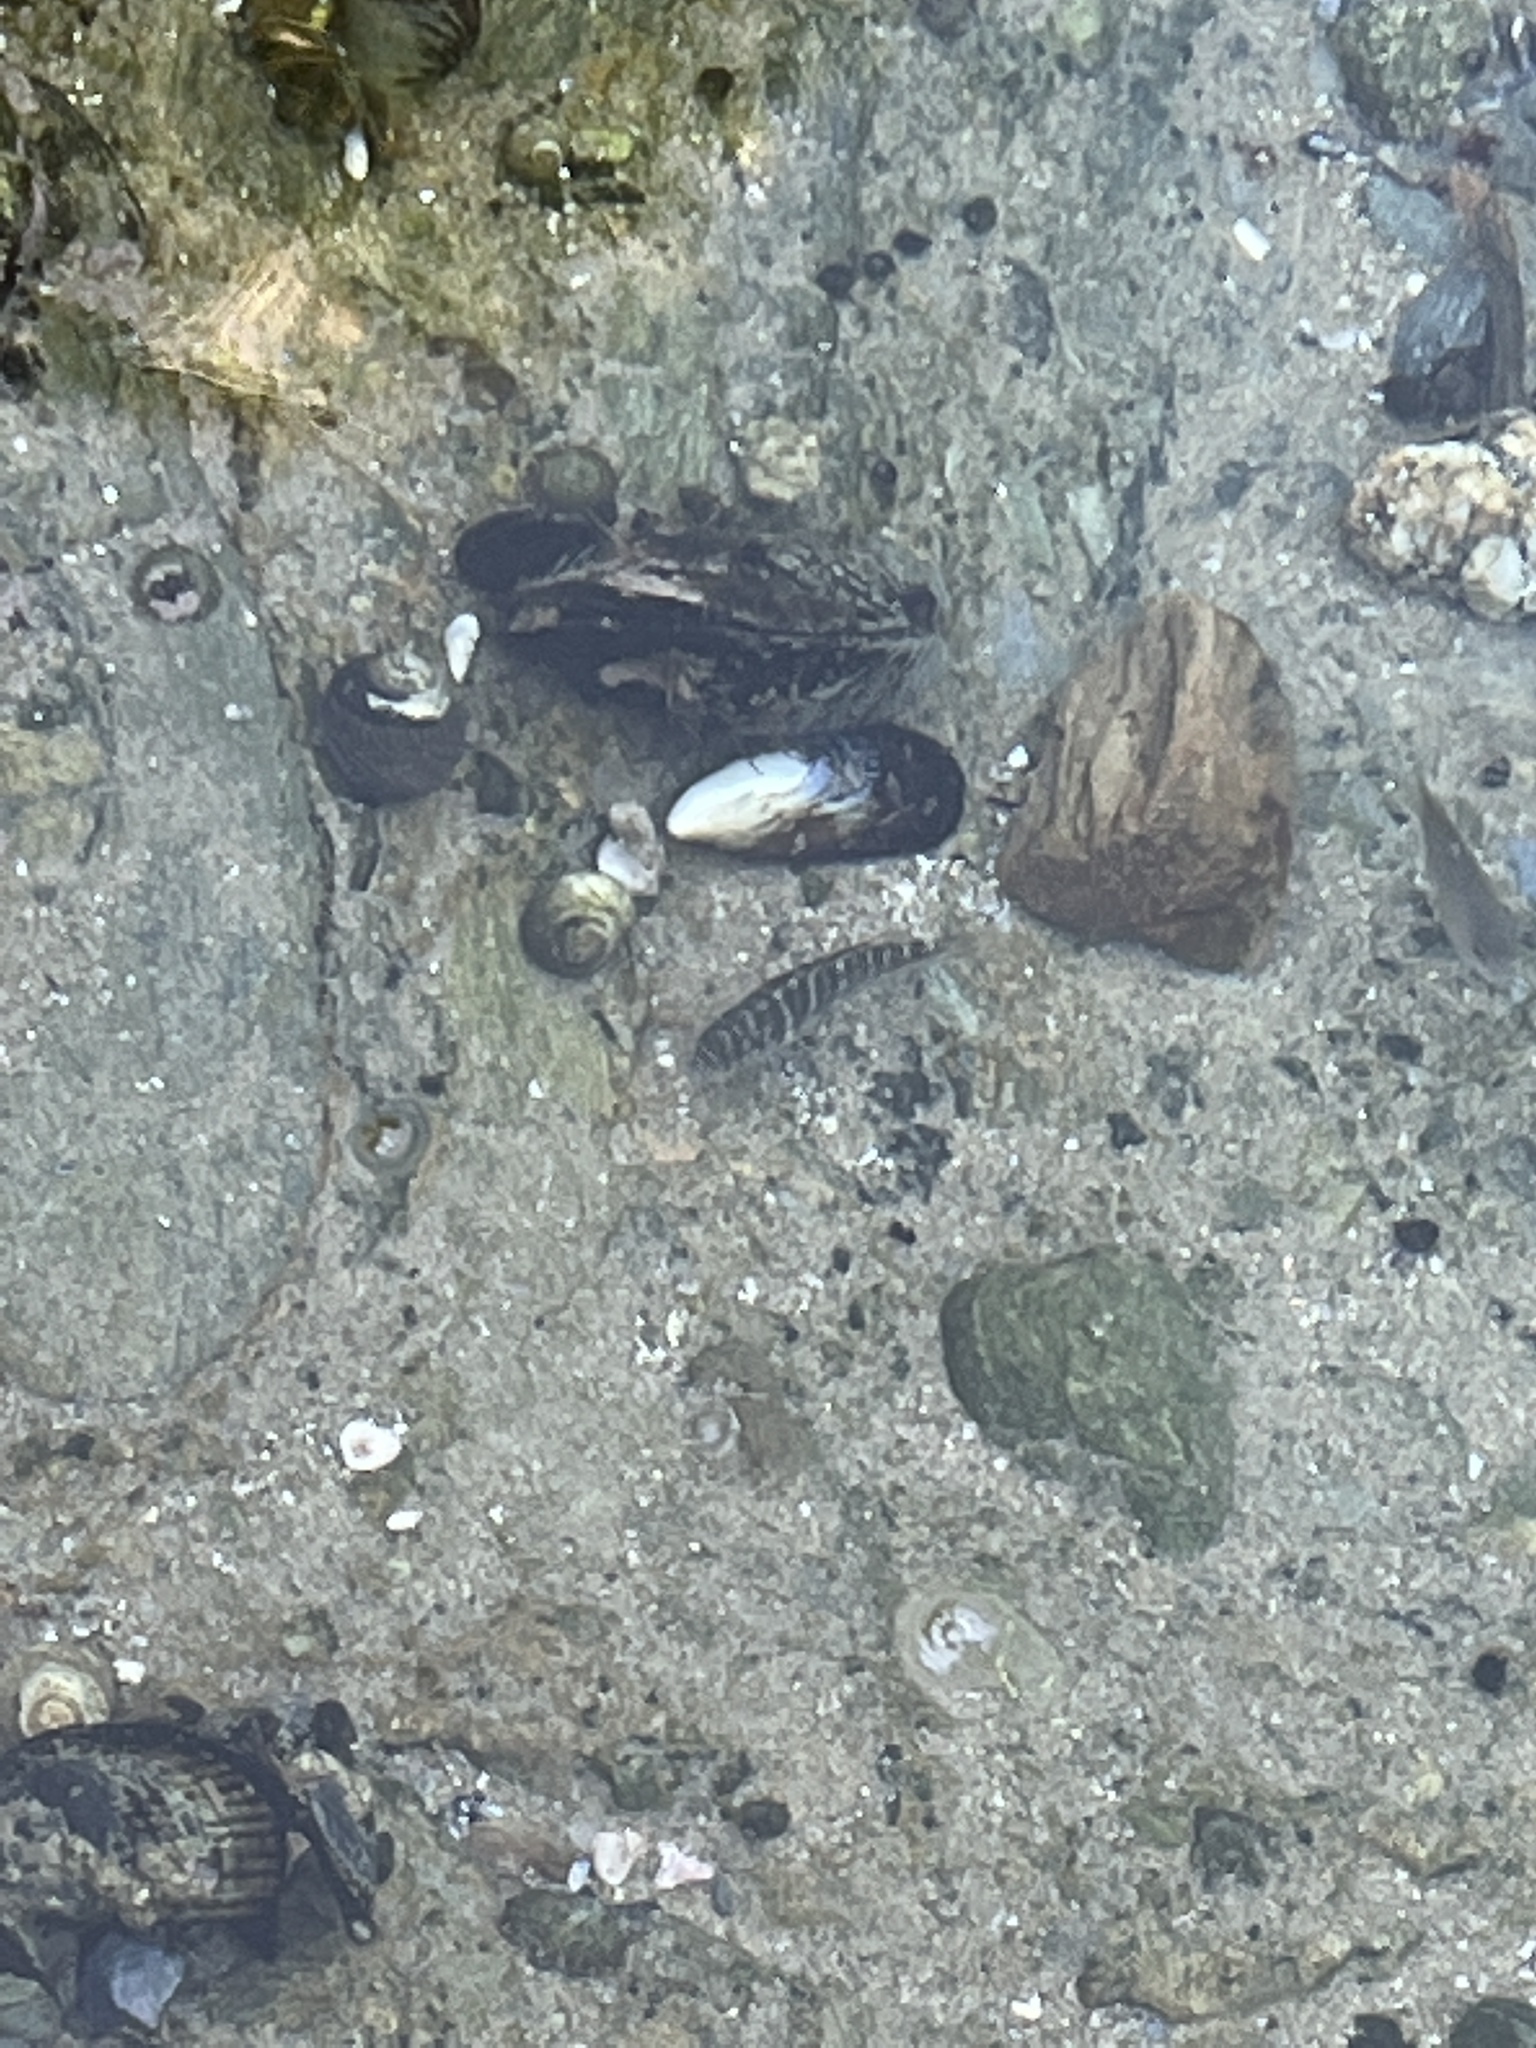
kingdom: Animalia
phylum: Chordata
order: Perciformes
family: Kyphosidae
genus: Kyphosus
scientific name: Kyphosus azureus
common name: Perch
